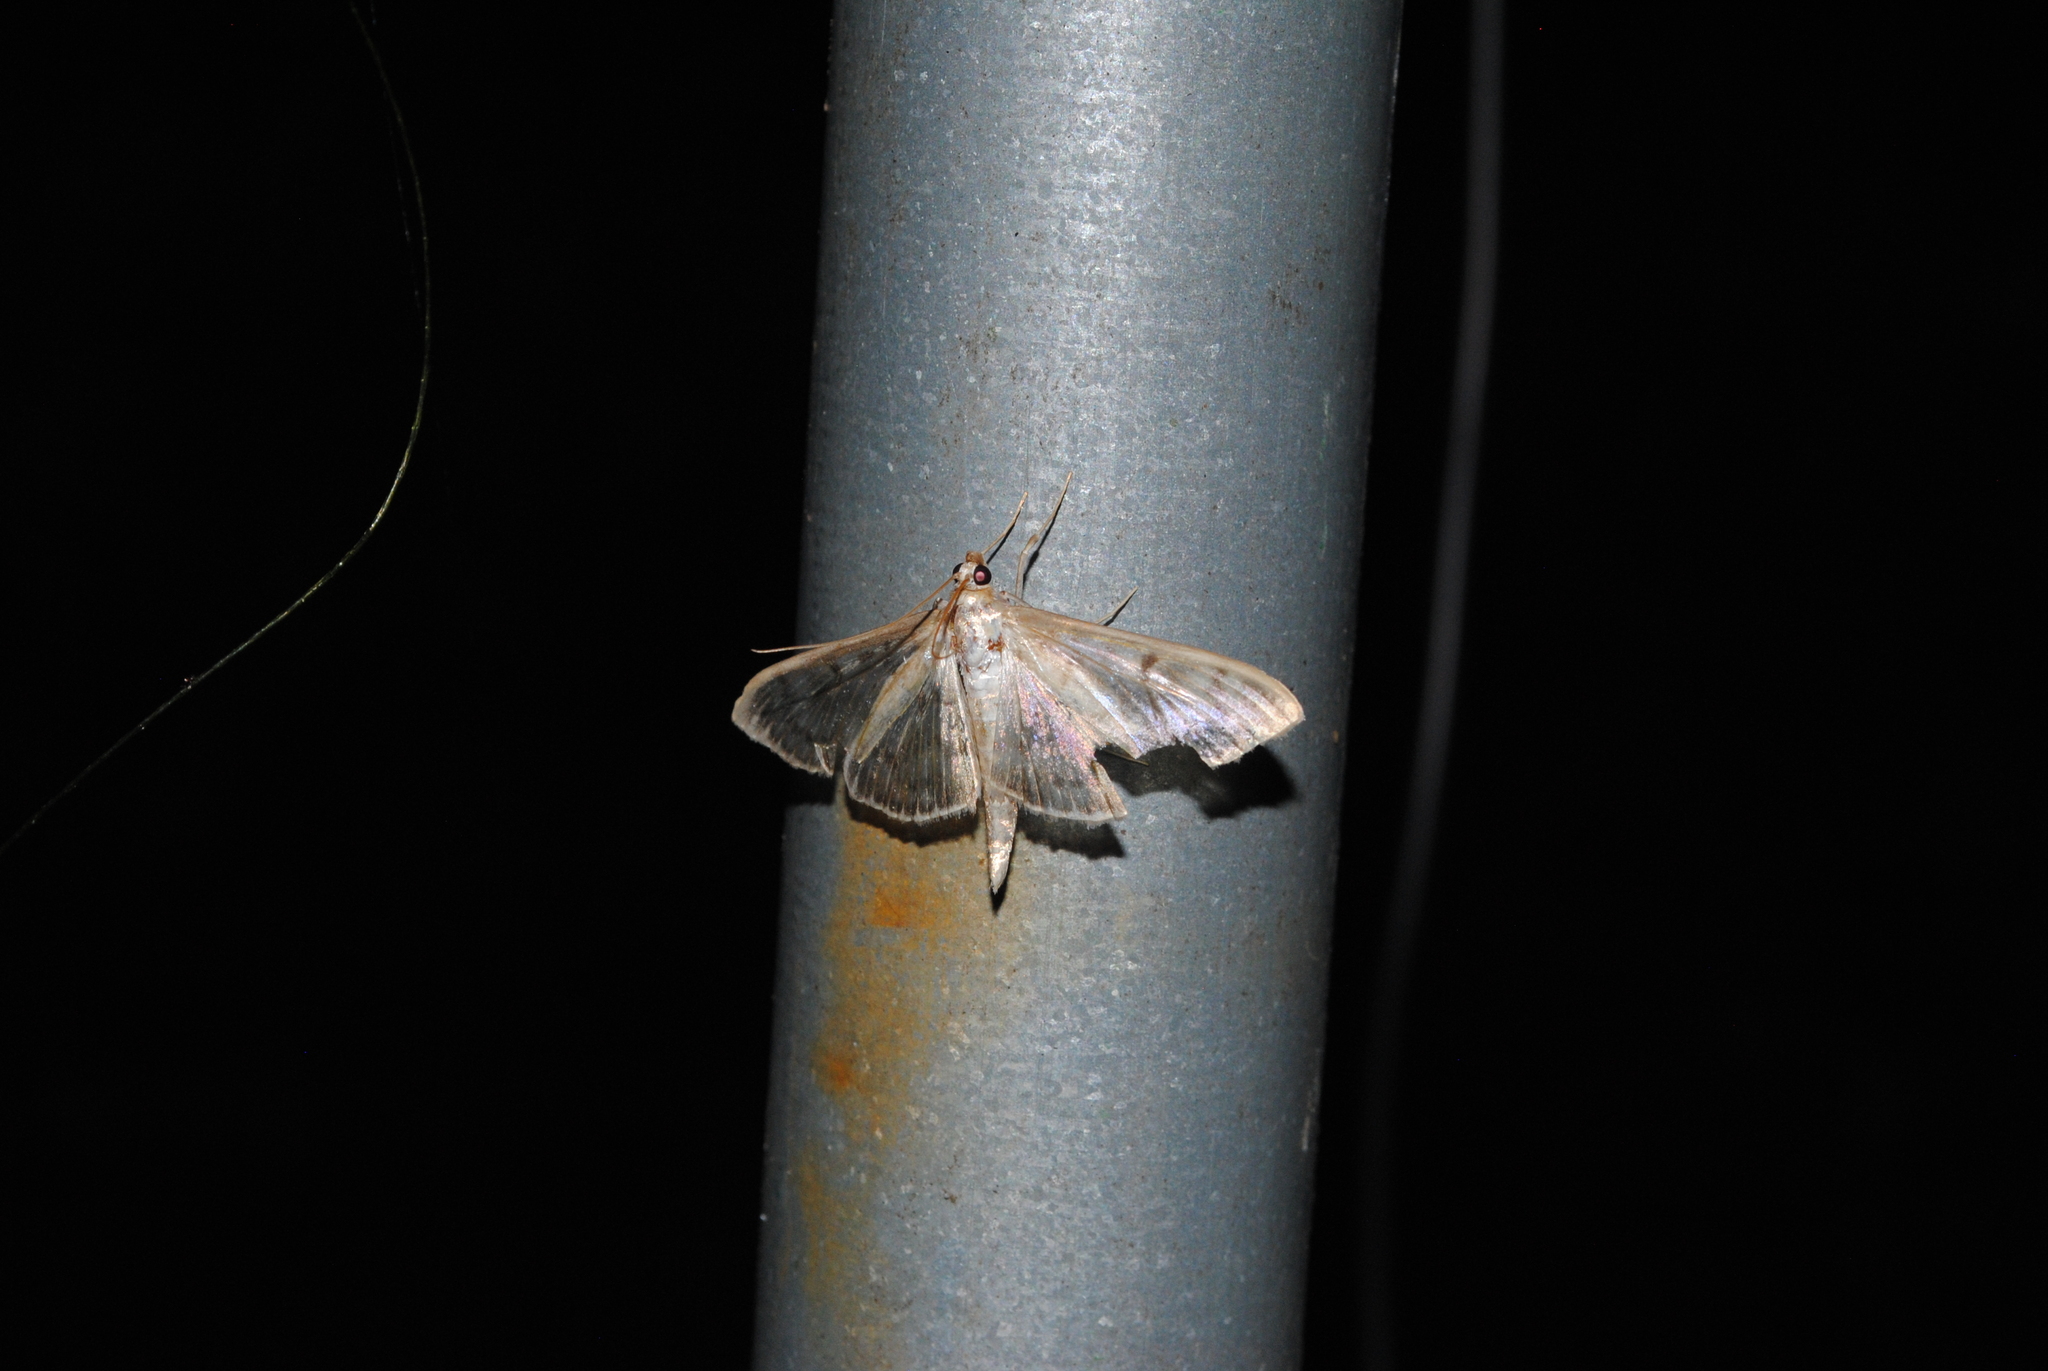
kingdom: Animalia
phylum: Arthropoda
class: Insecta
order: Lepidoptera
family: Crambidae
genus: Patania
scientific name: Patania ruralis
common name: Mother of pearl
